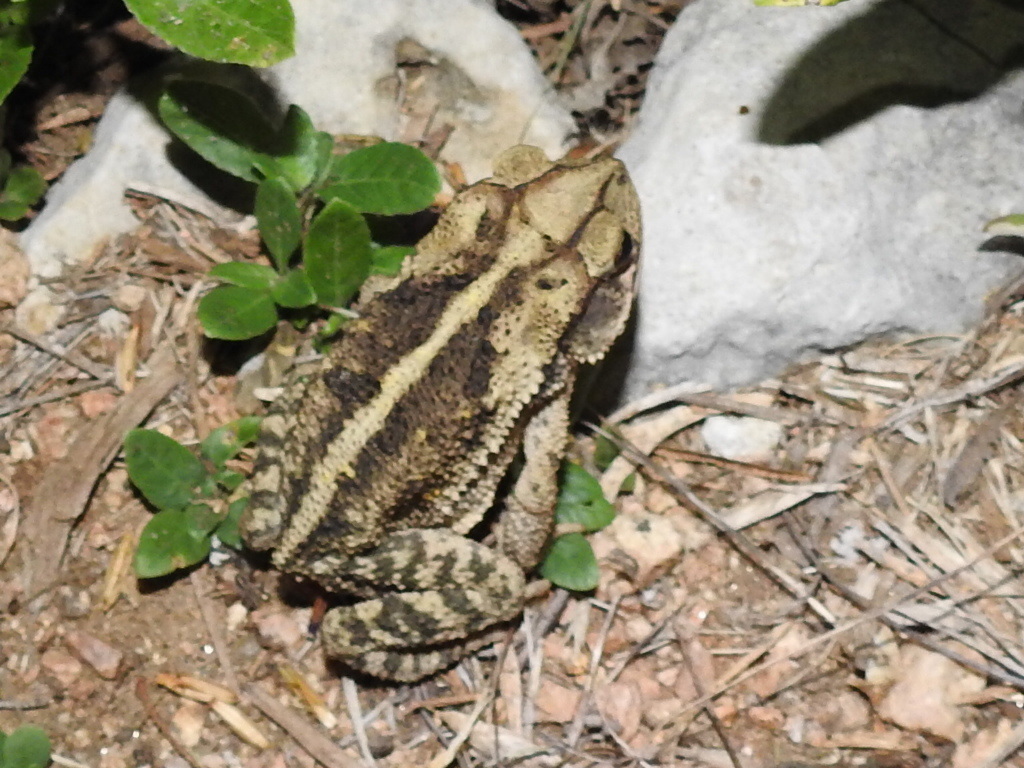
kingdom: Animalia
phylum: Chordata
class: Amphibia
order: Anura
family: Bufonidae
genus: Incilius
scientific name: Incilius nebulifer
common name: Gulf coast toad
